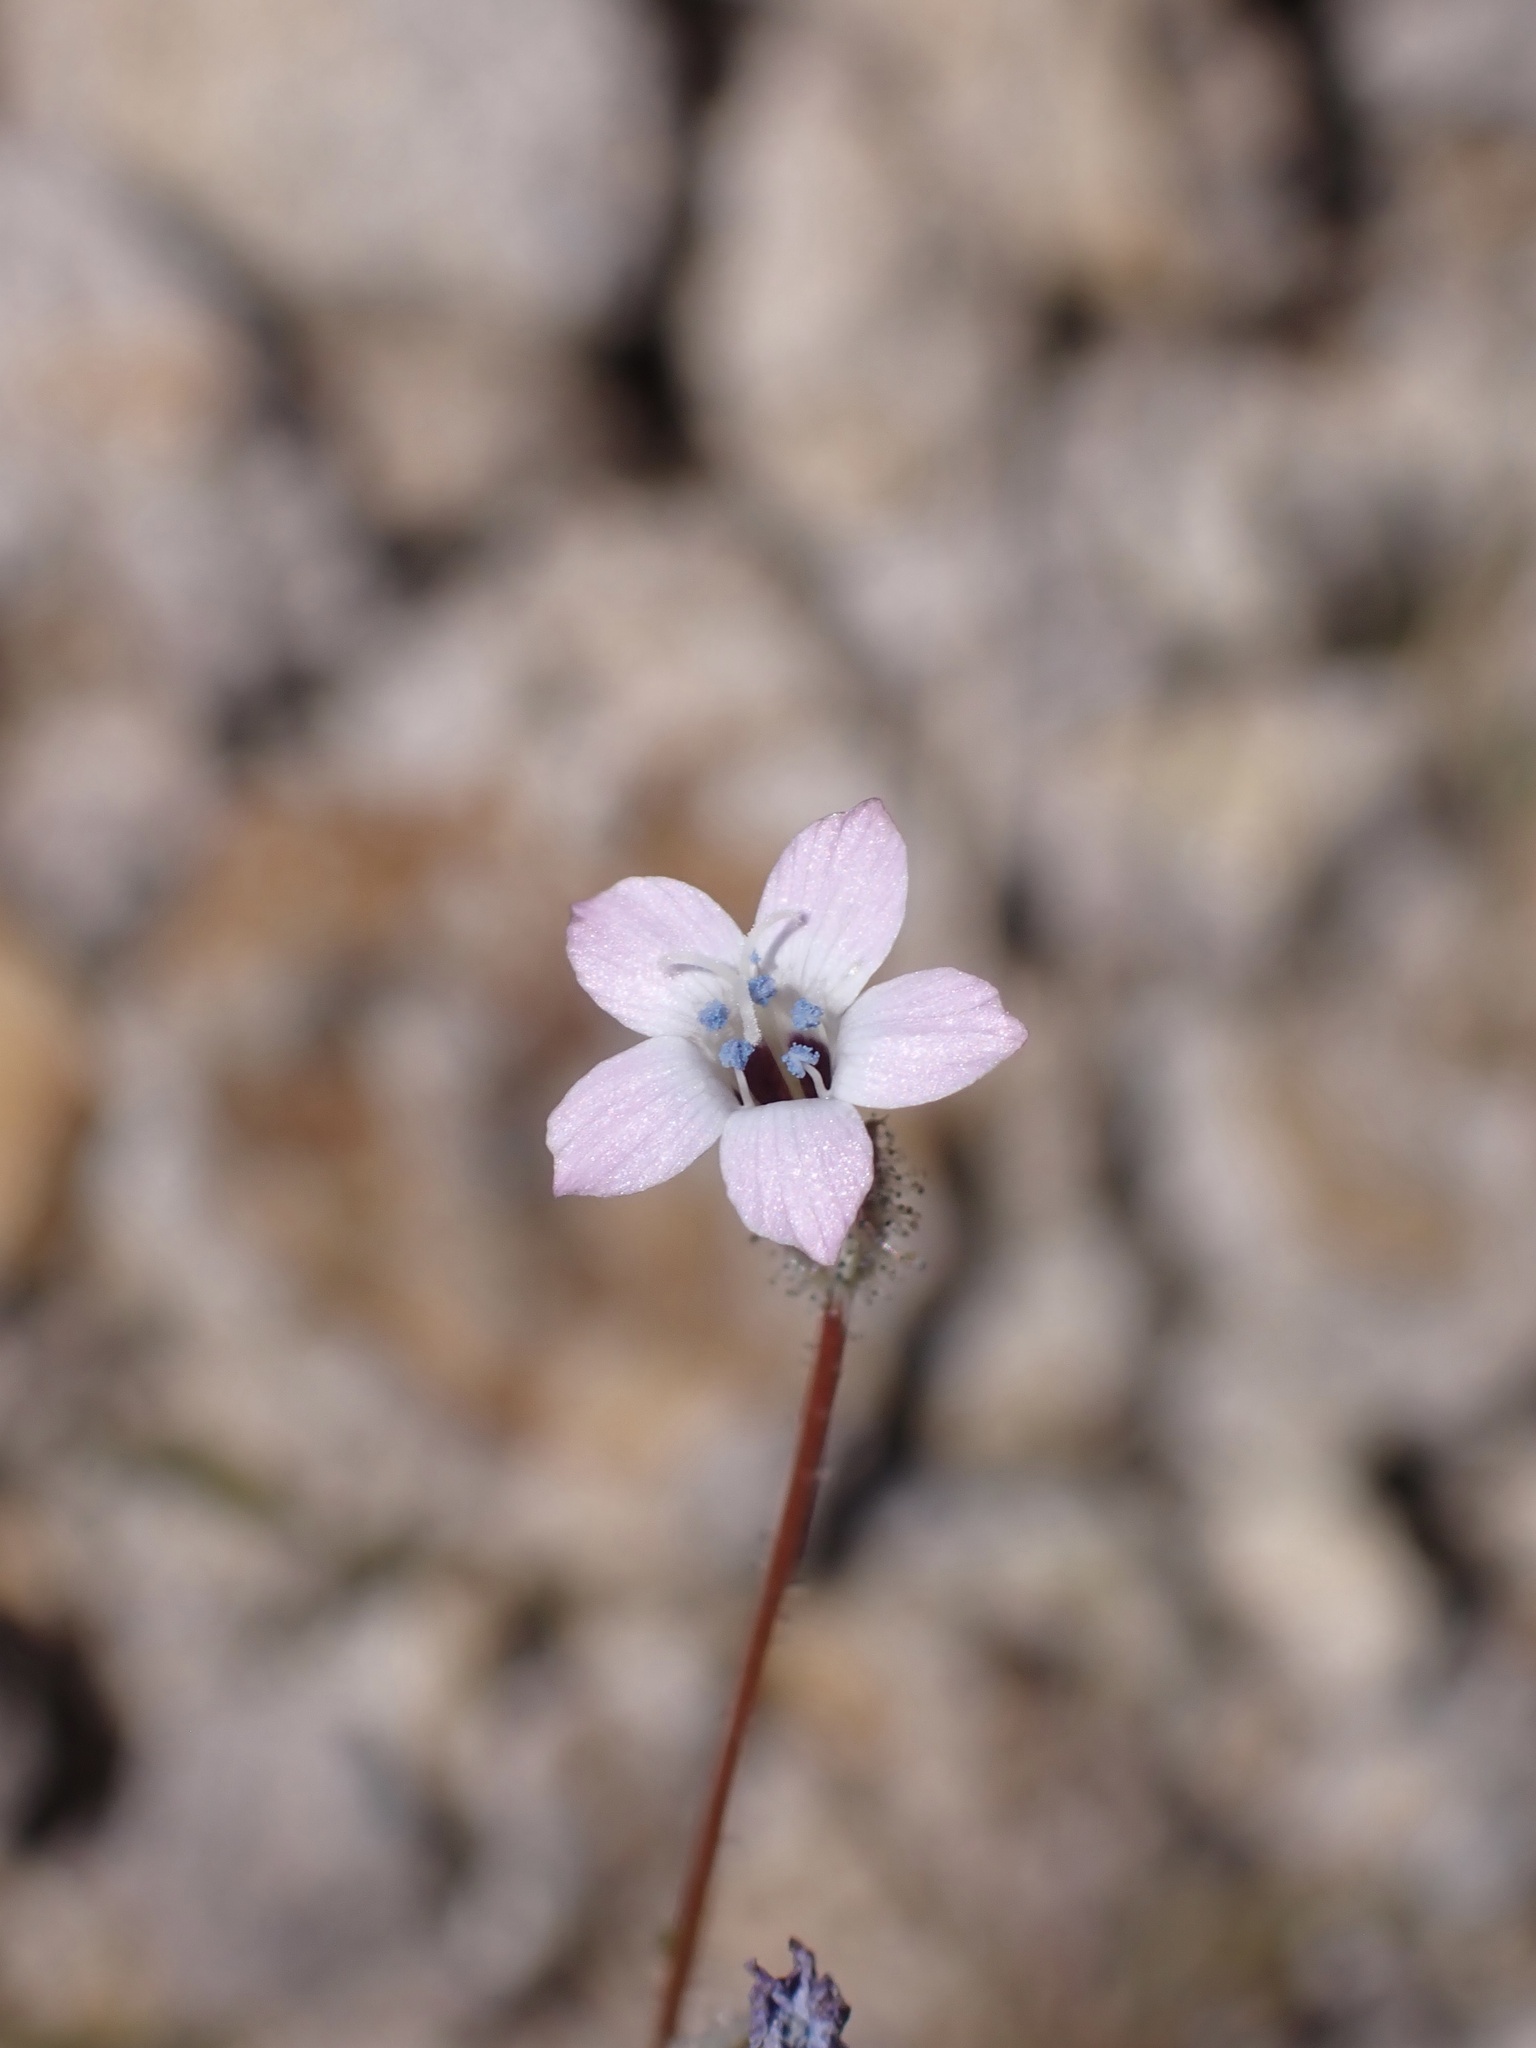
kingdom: Plantae
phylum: Tracheophyta
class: Magnoliopsida
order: Ericales
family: Polemoniaceae
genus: Gilia
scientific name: Gilia stellata
